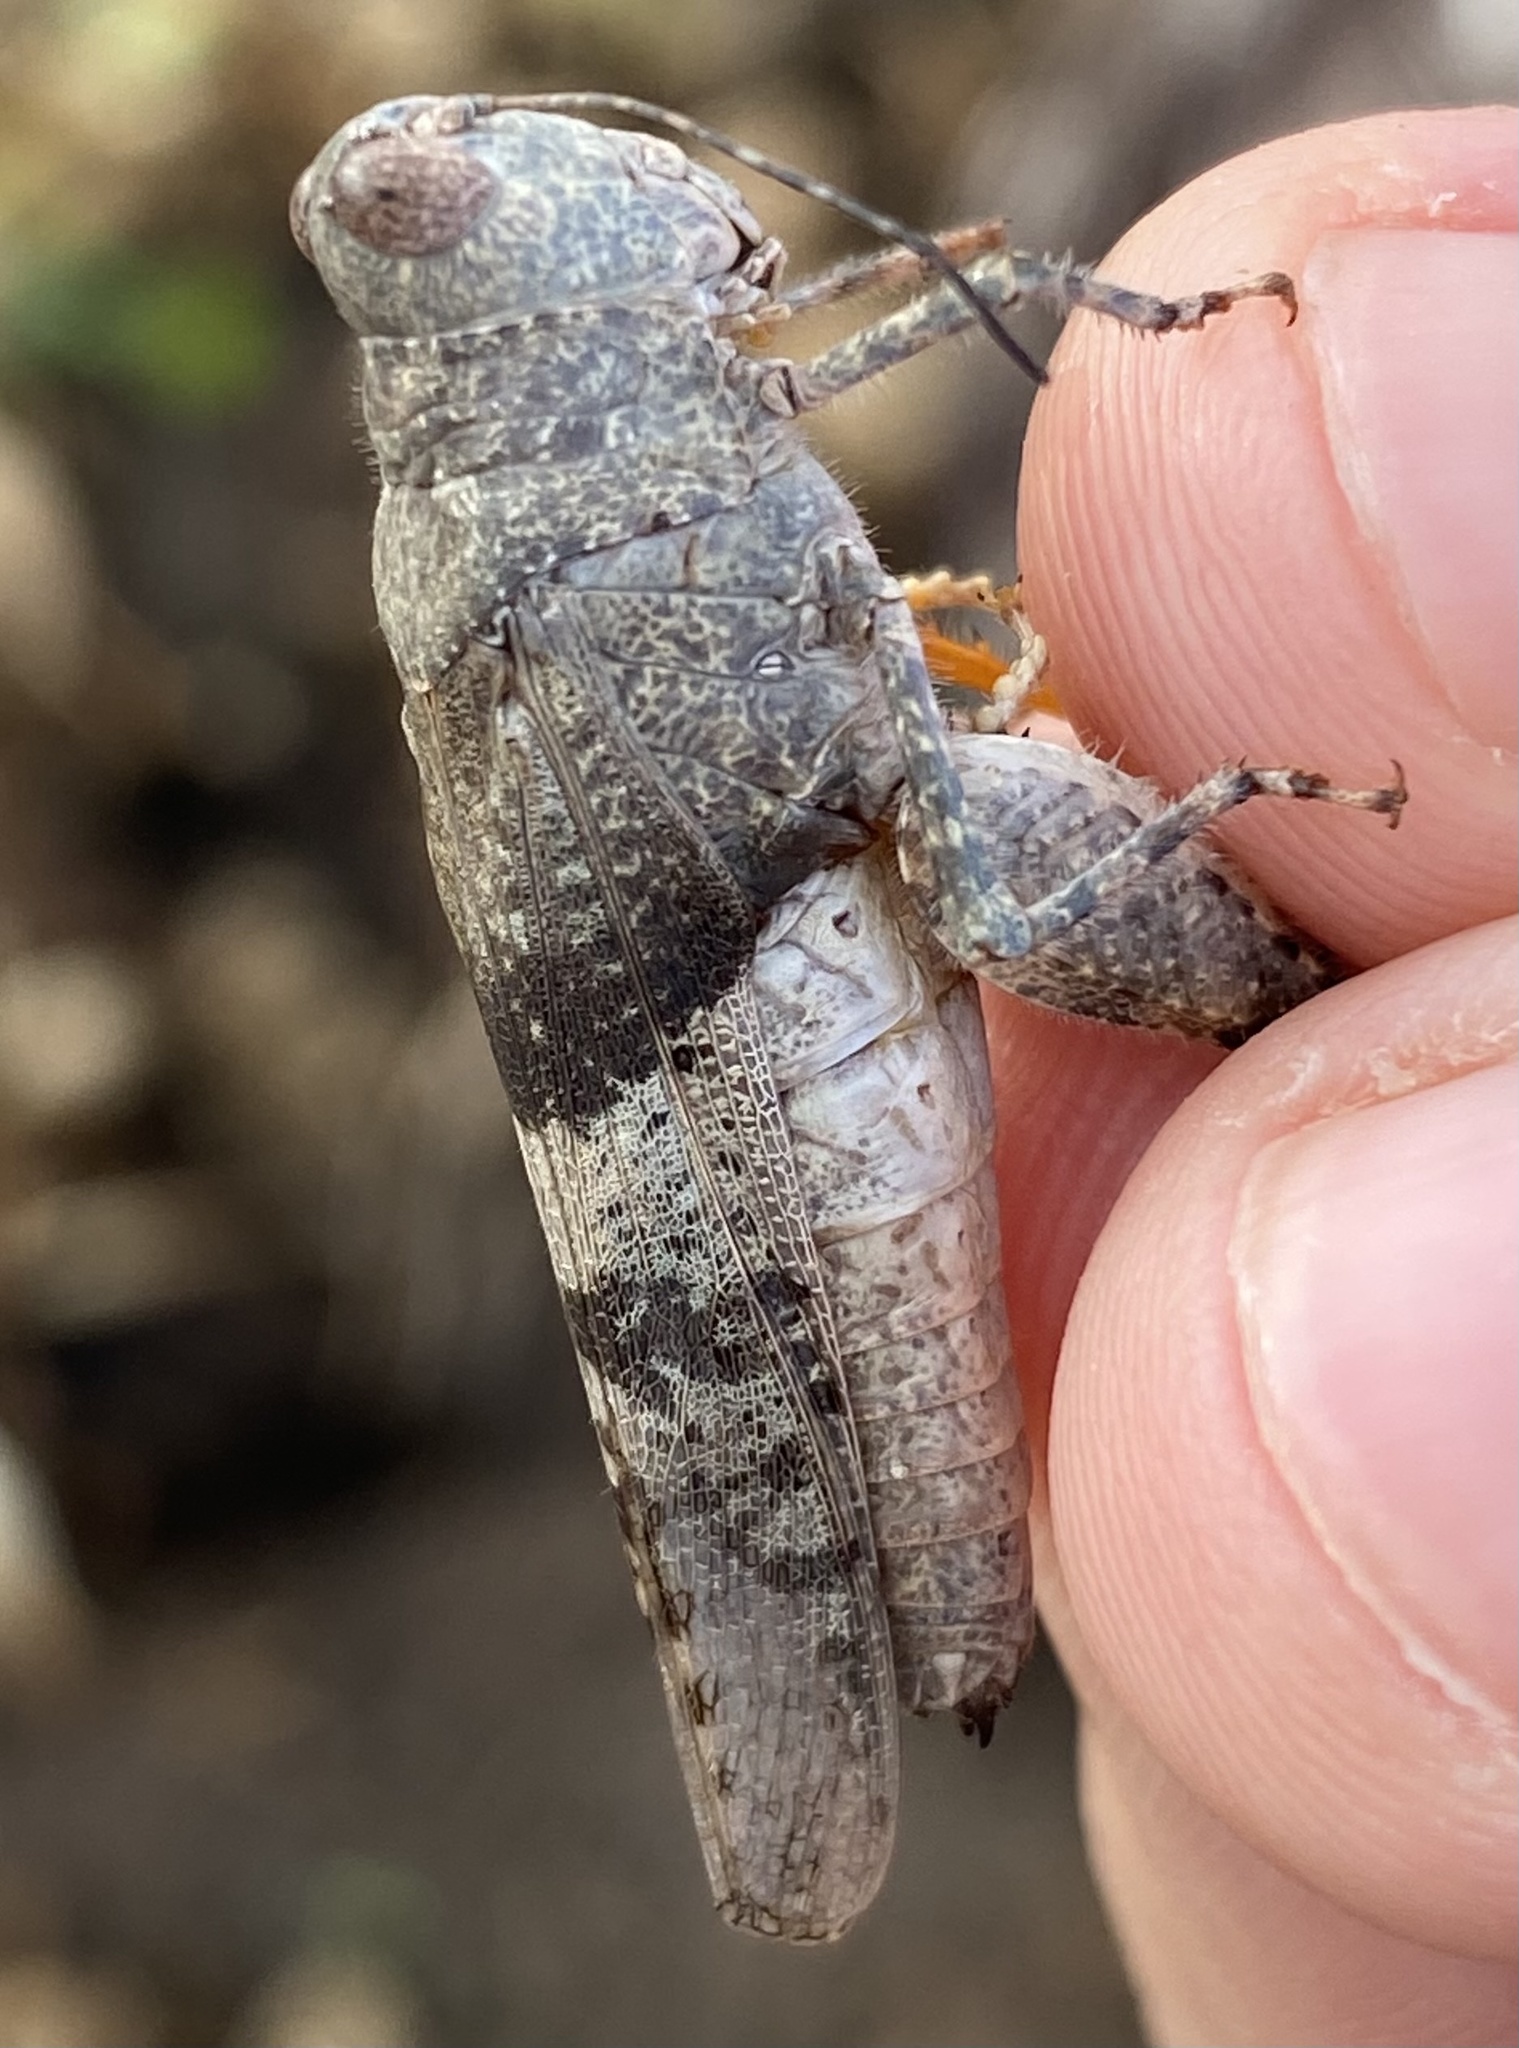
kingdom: Animalia
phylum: Arthropoda
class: Insecta
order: Orthoptera
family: Acrididae
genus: Heliastus
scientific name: Heliastus benjamini
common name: Arroyo grasshopper
